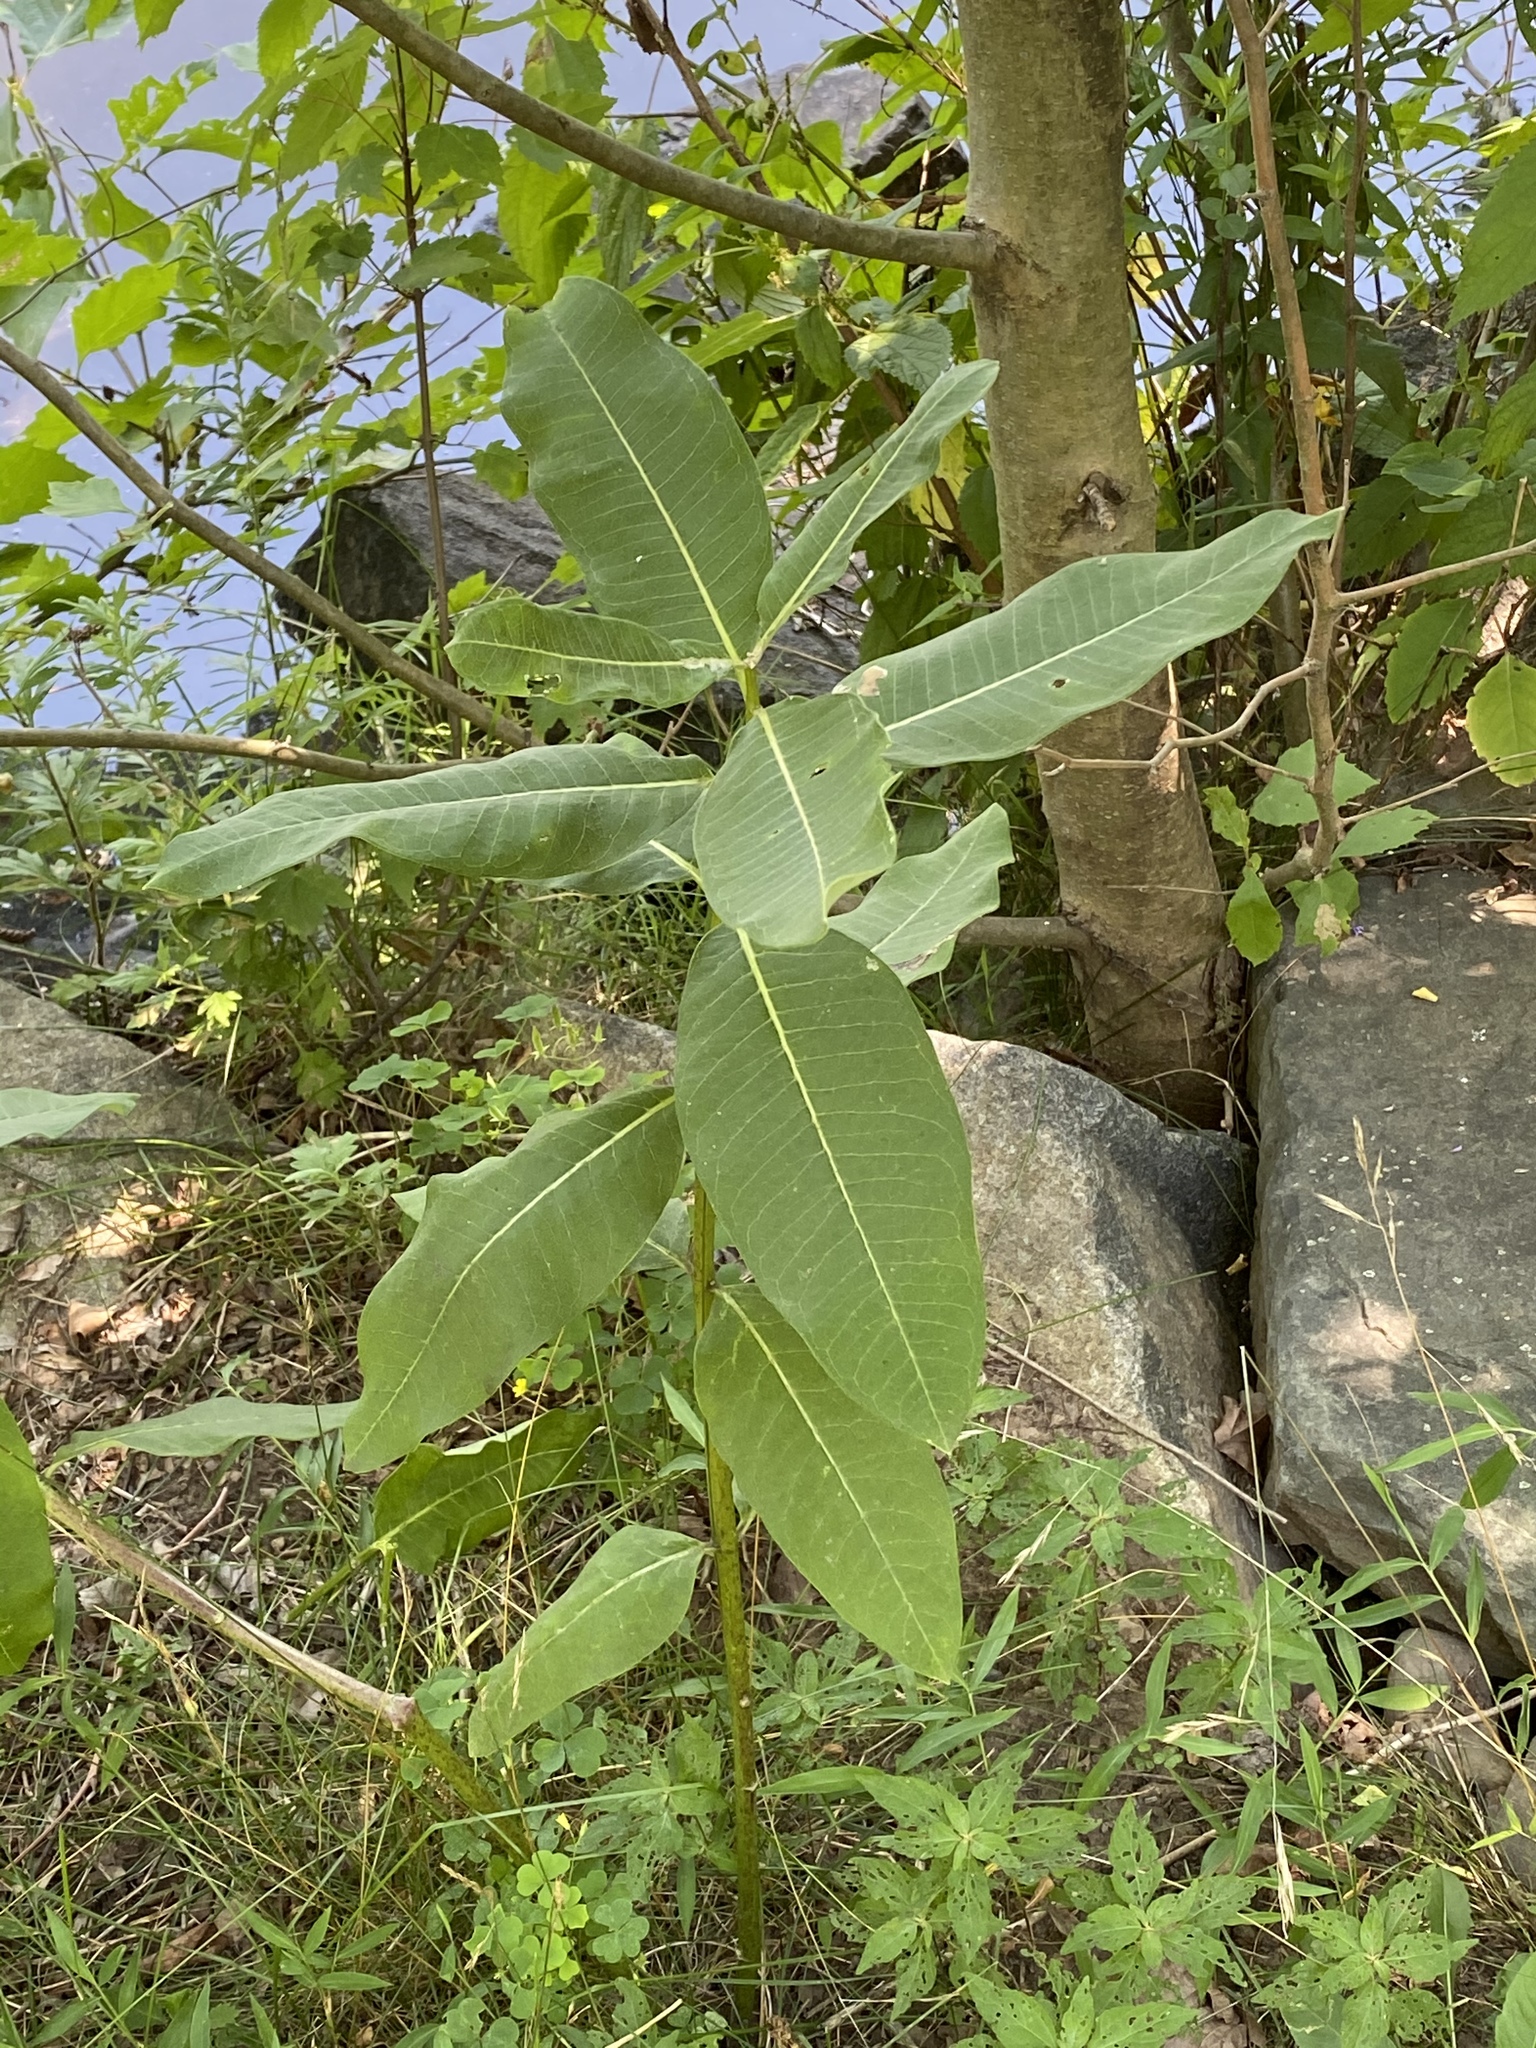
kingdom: Plantae
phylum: Tracheophyta
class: Magnoliopsida
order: Gentianales
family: Apocynaceae
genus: Asclepias
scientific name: Asclepias syriaca
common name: Common milkweed
